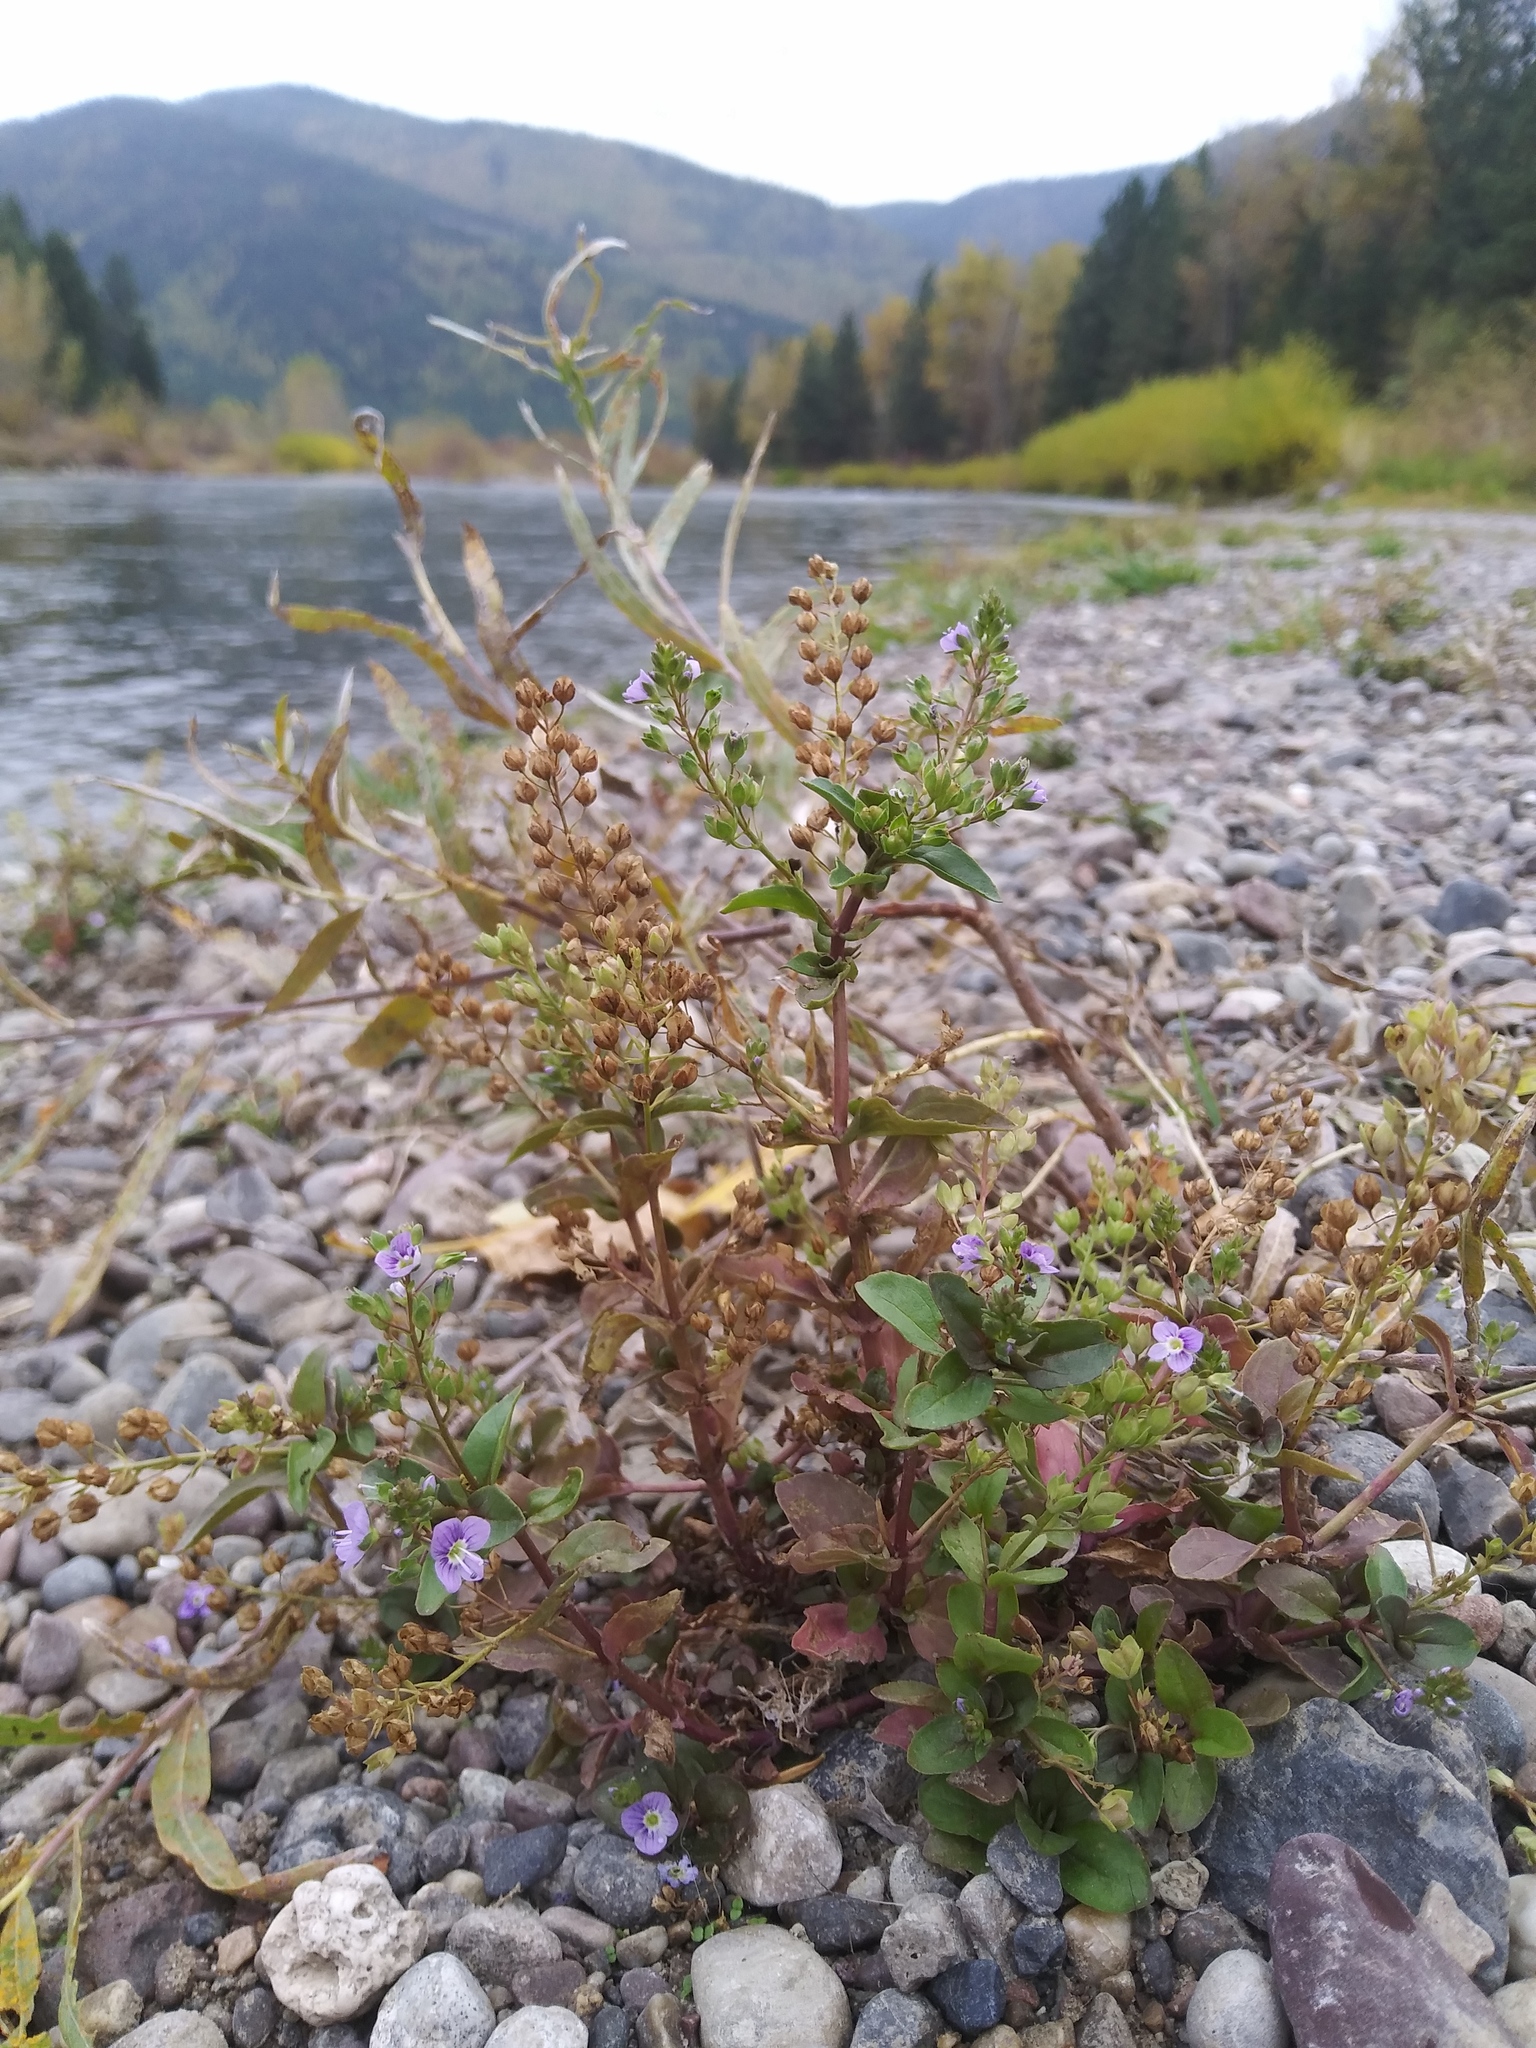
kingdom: Plantae
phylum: Tracheophyta
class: Magnoliopsida
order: Lamiales
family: Plantaginaceae
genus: Veronica
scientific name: Veronica anagallis-aquatica
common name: Water speedwell
